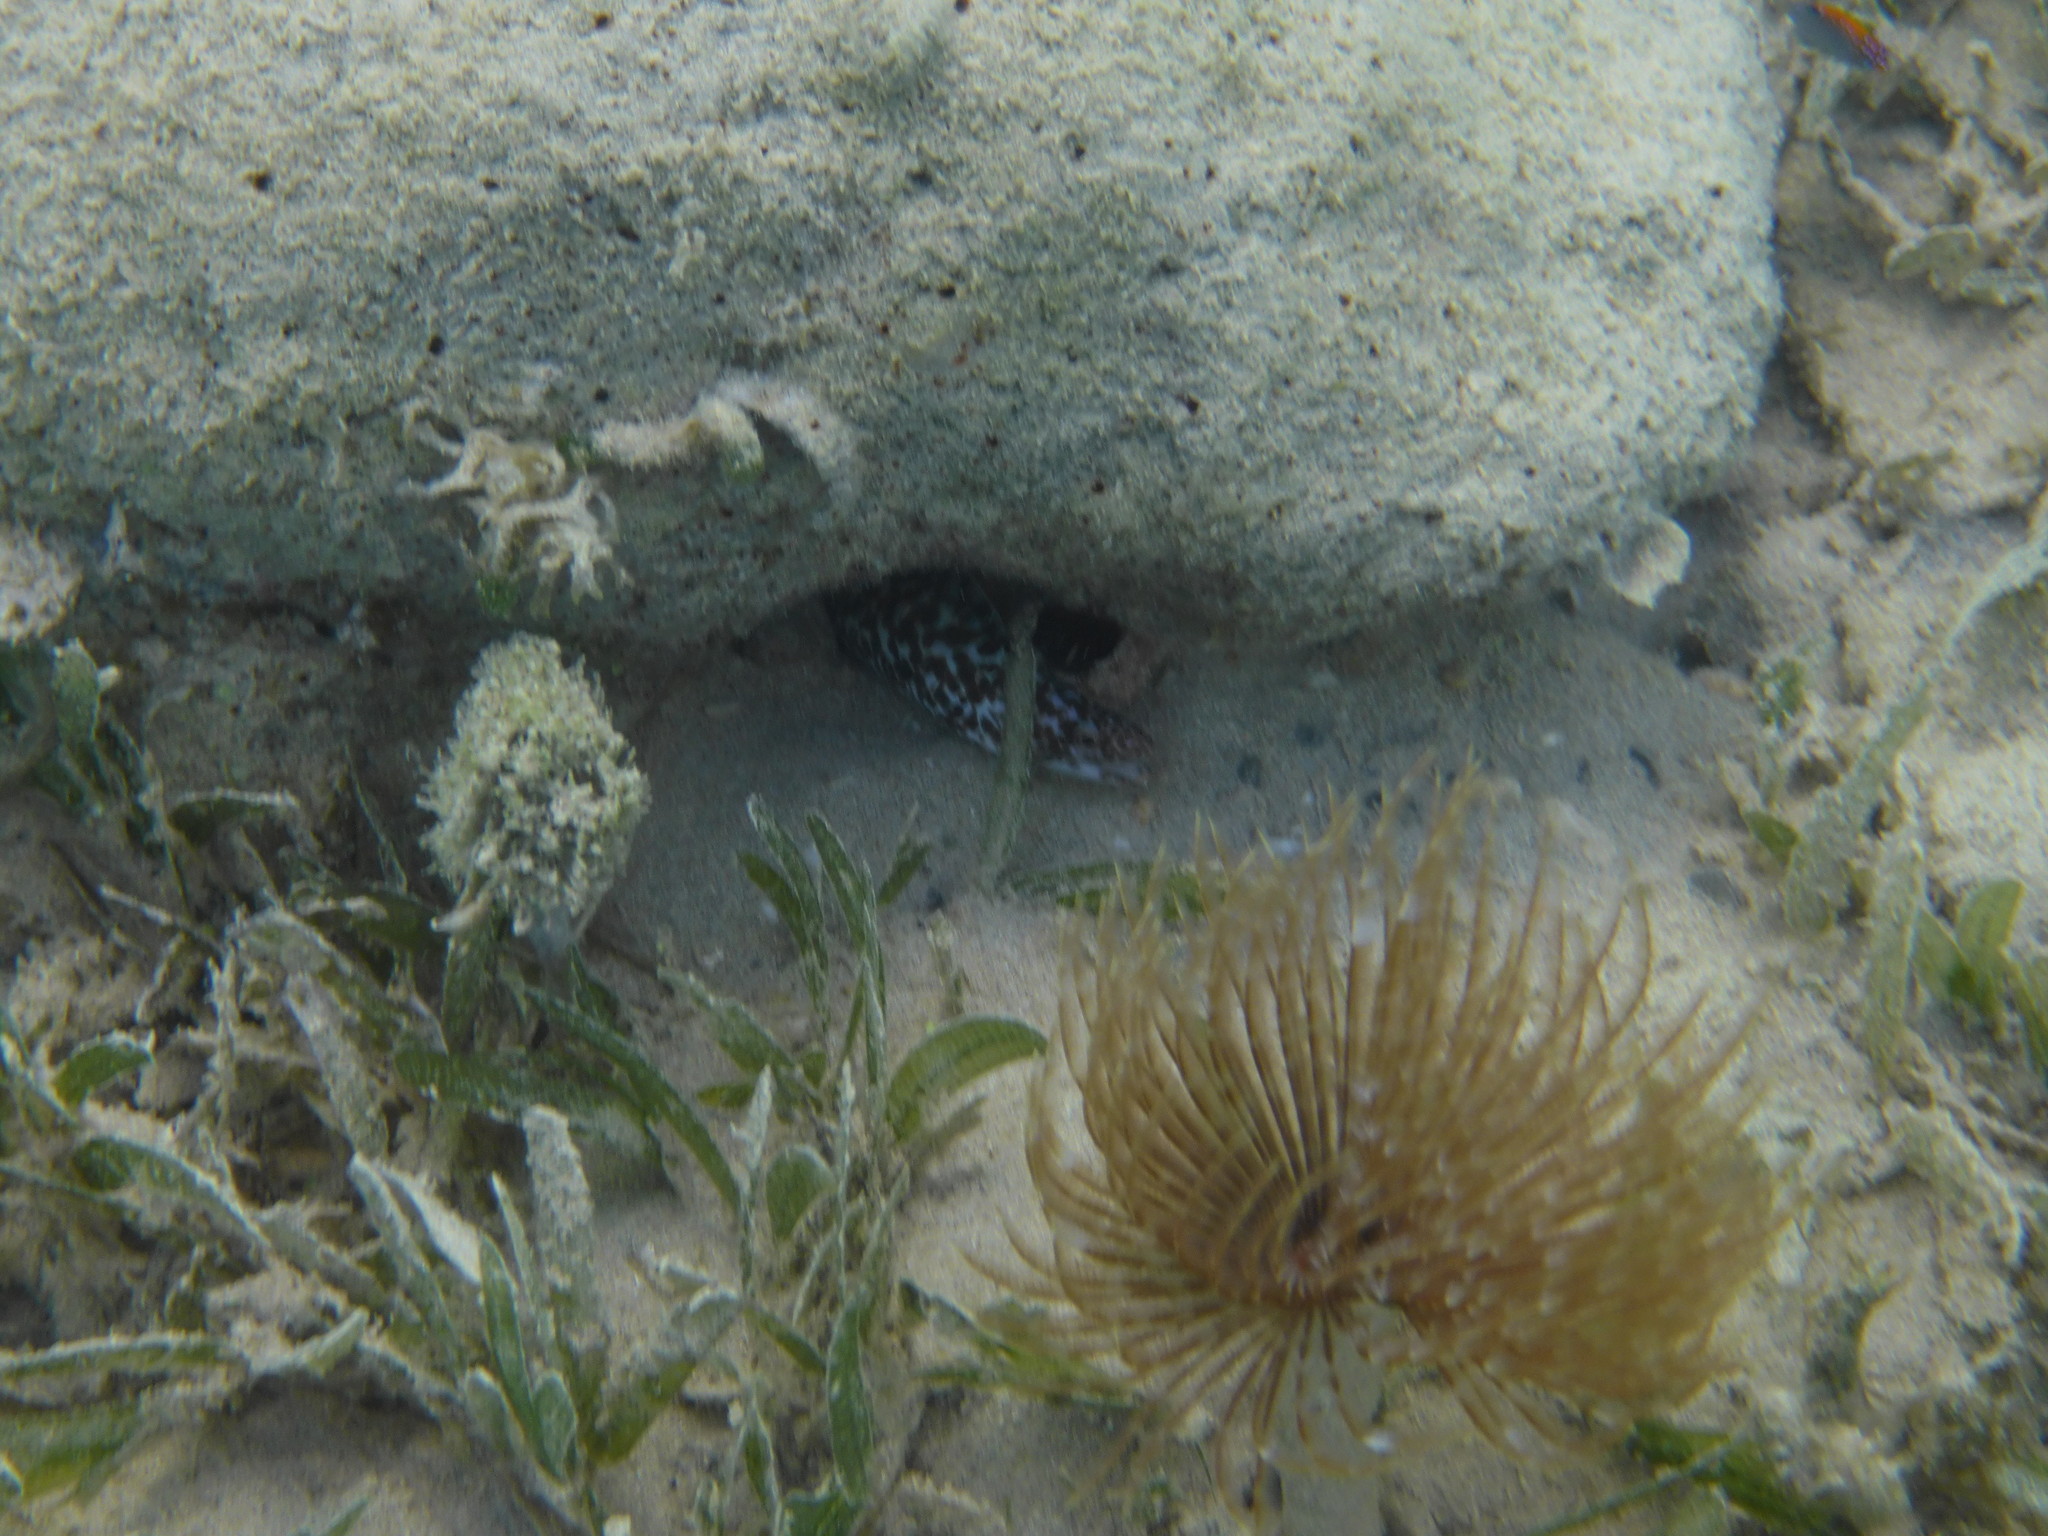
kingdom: Animalia
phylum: Chordata
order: Anguilliformes
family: Muraenidae
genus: Gymnothorax
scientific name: Gymnothorax moringa
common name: Spotted moray
